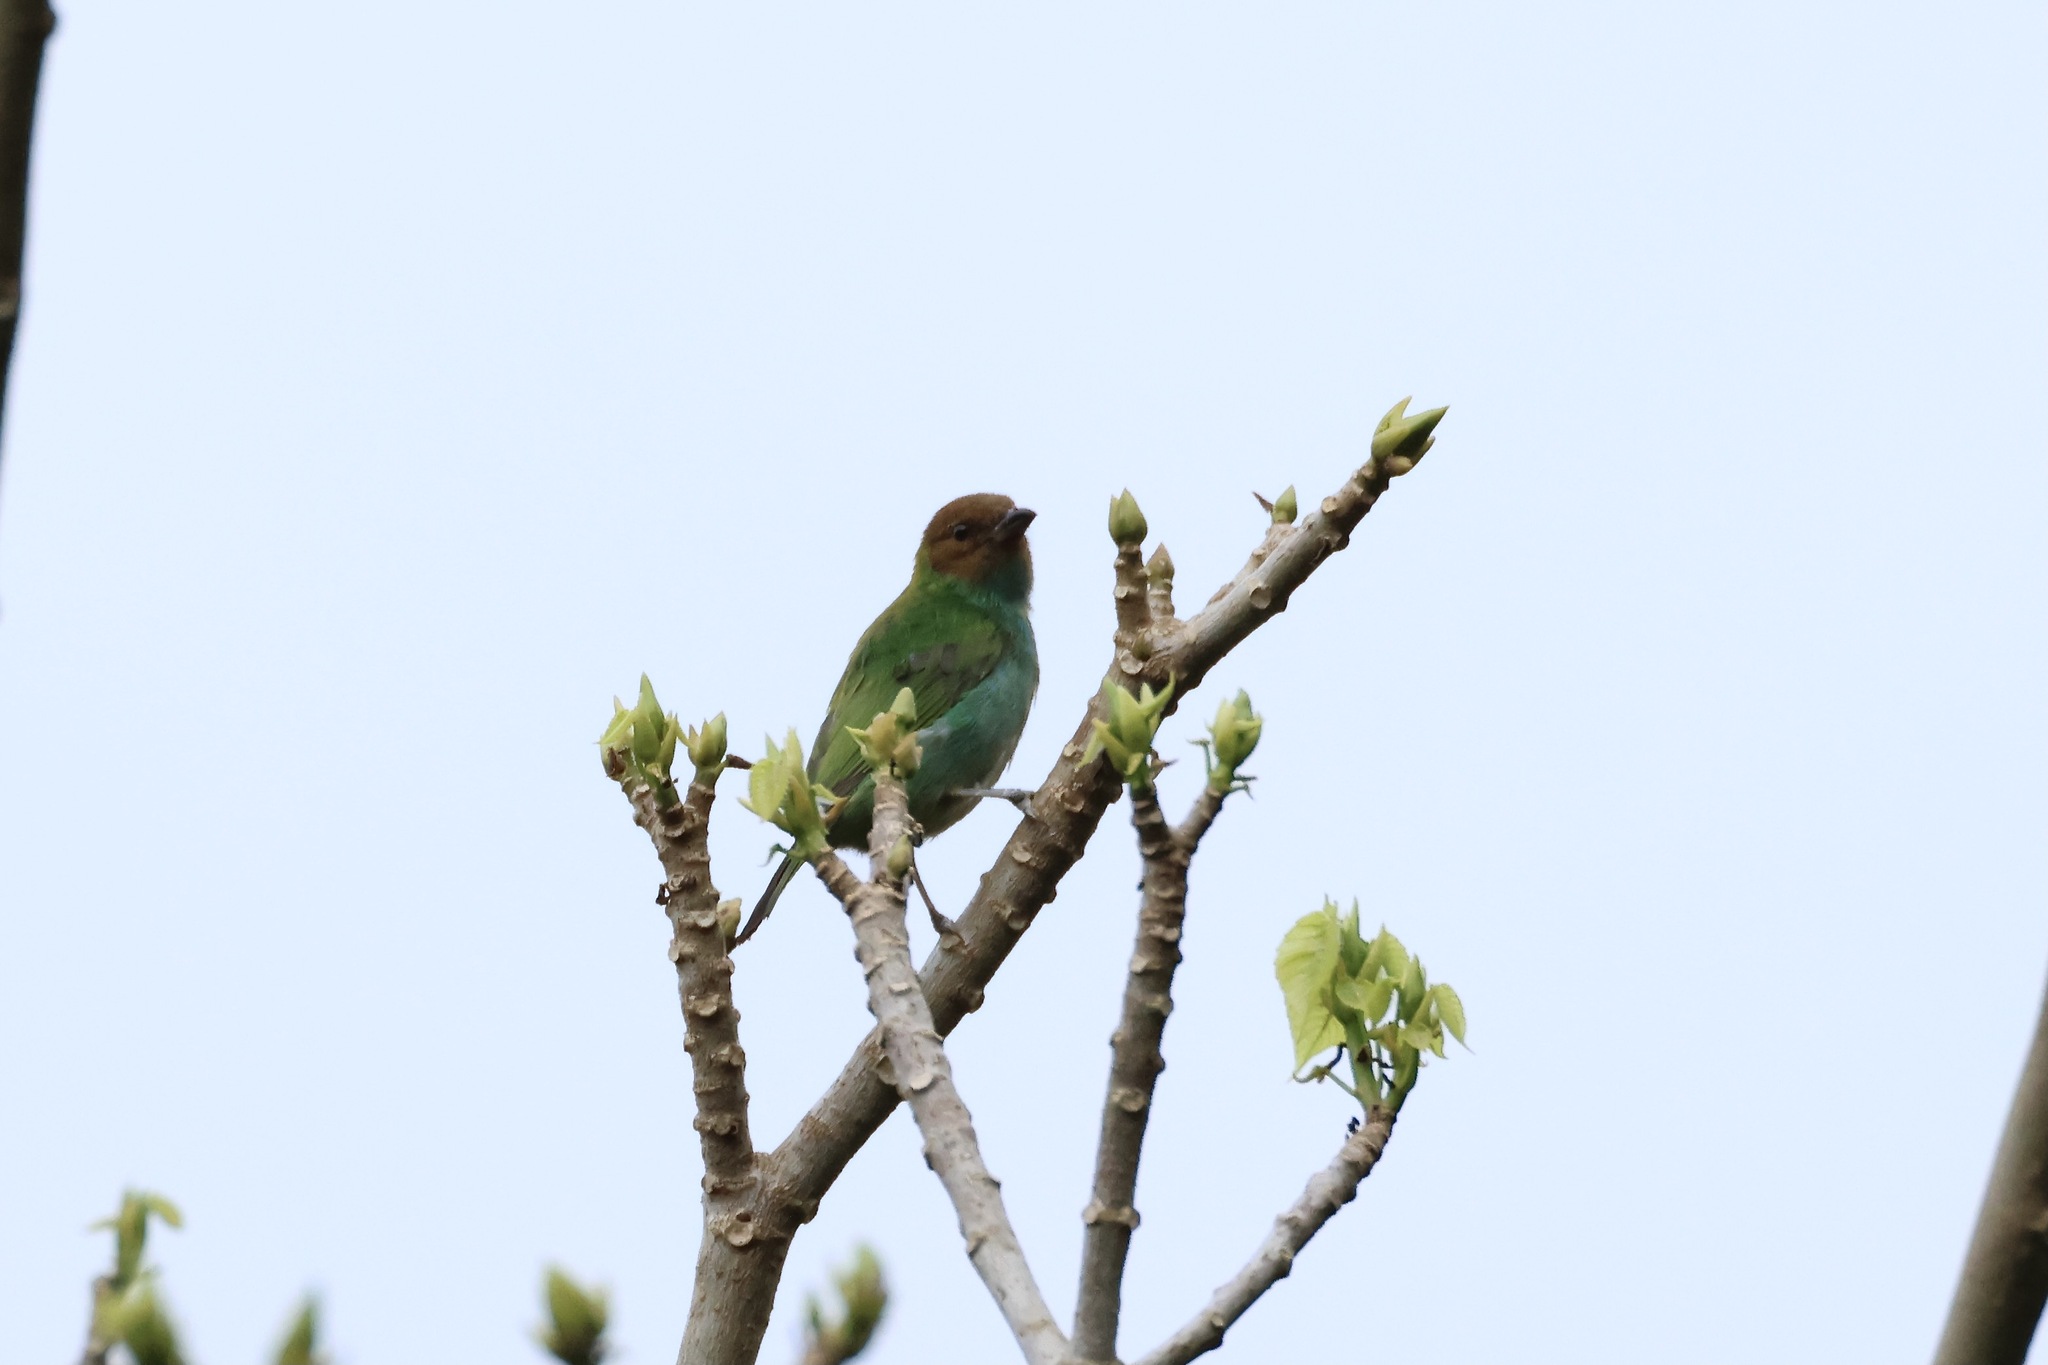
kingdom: Animalia
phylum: Chordata
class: Aves
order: Passeriformes
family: Thraupidae
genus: Tangara
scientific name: Tangara gyrola
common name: Bay-headed tanager
